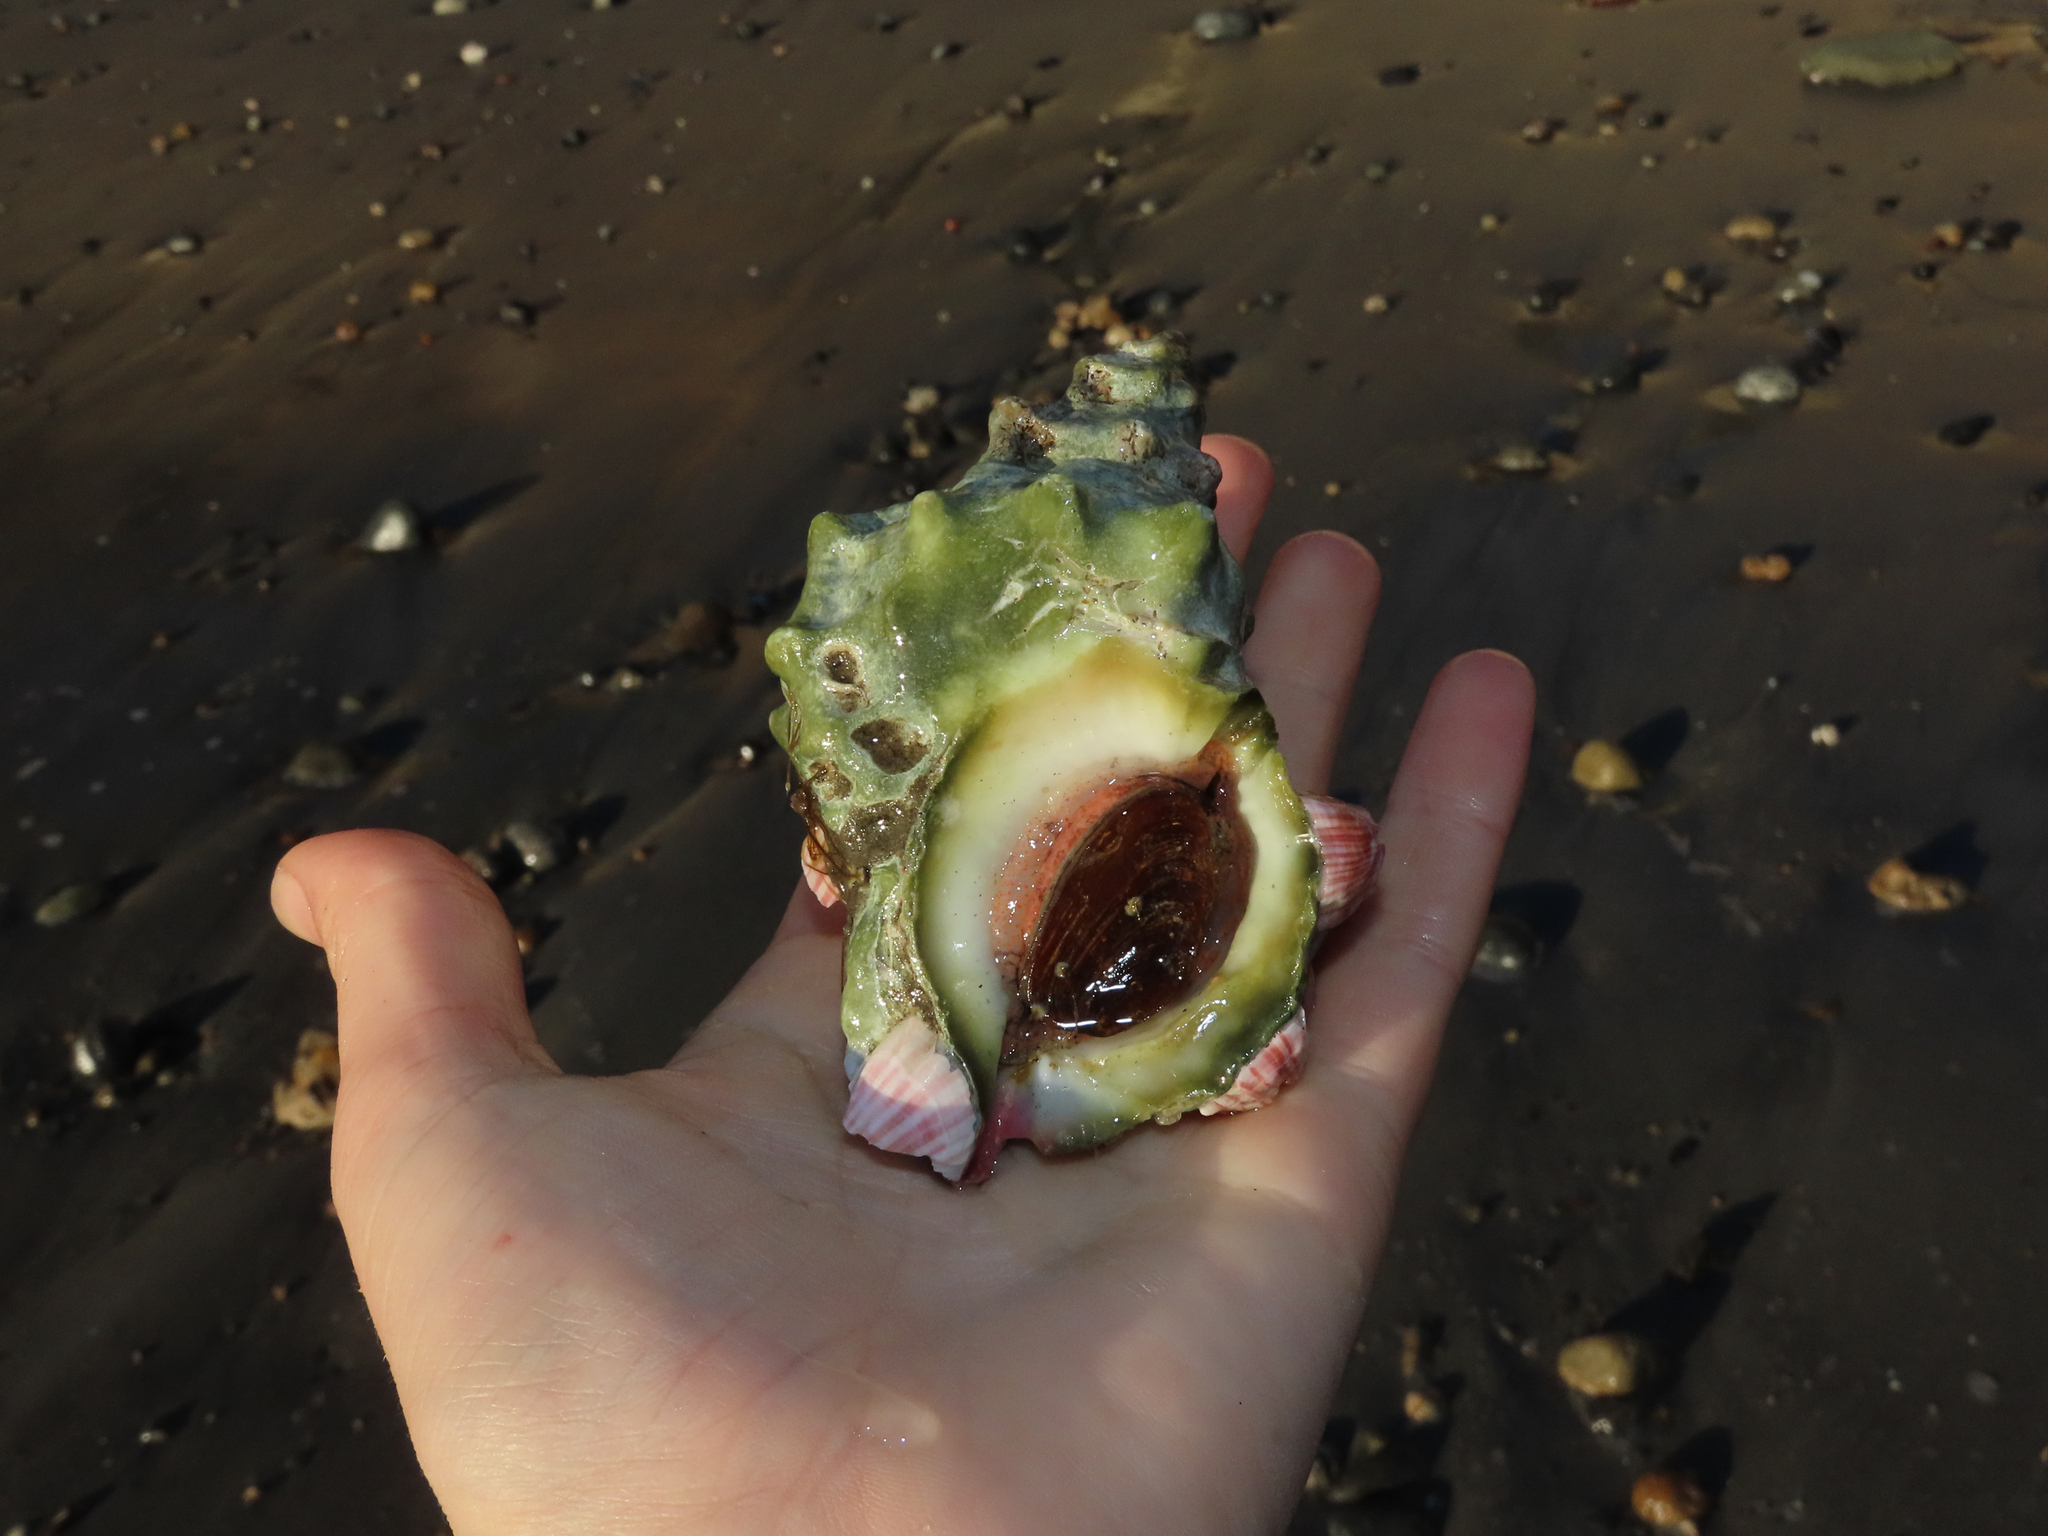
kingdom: Animalia
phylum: Mollusca
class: Gastropoda
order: Littorinimorpha
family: Bursidae
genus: Crossata
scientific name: Crossata californica
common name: California frogsnail
